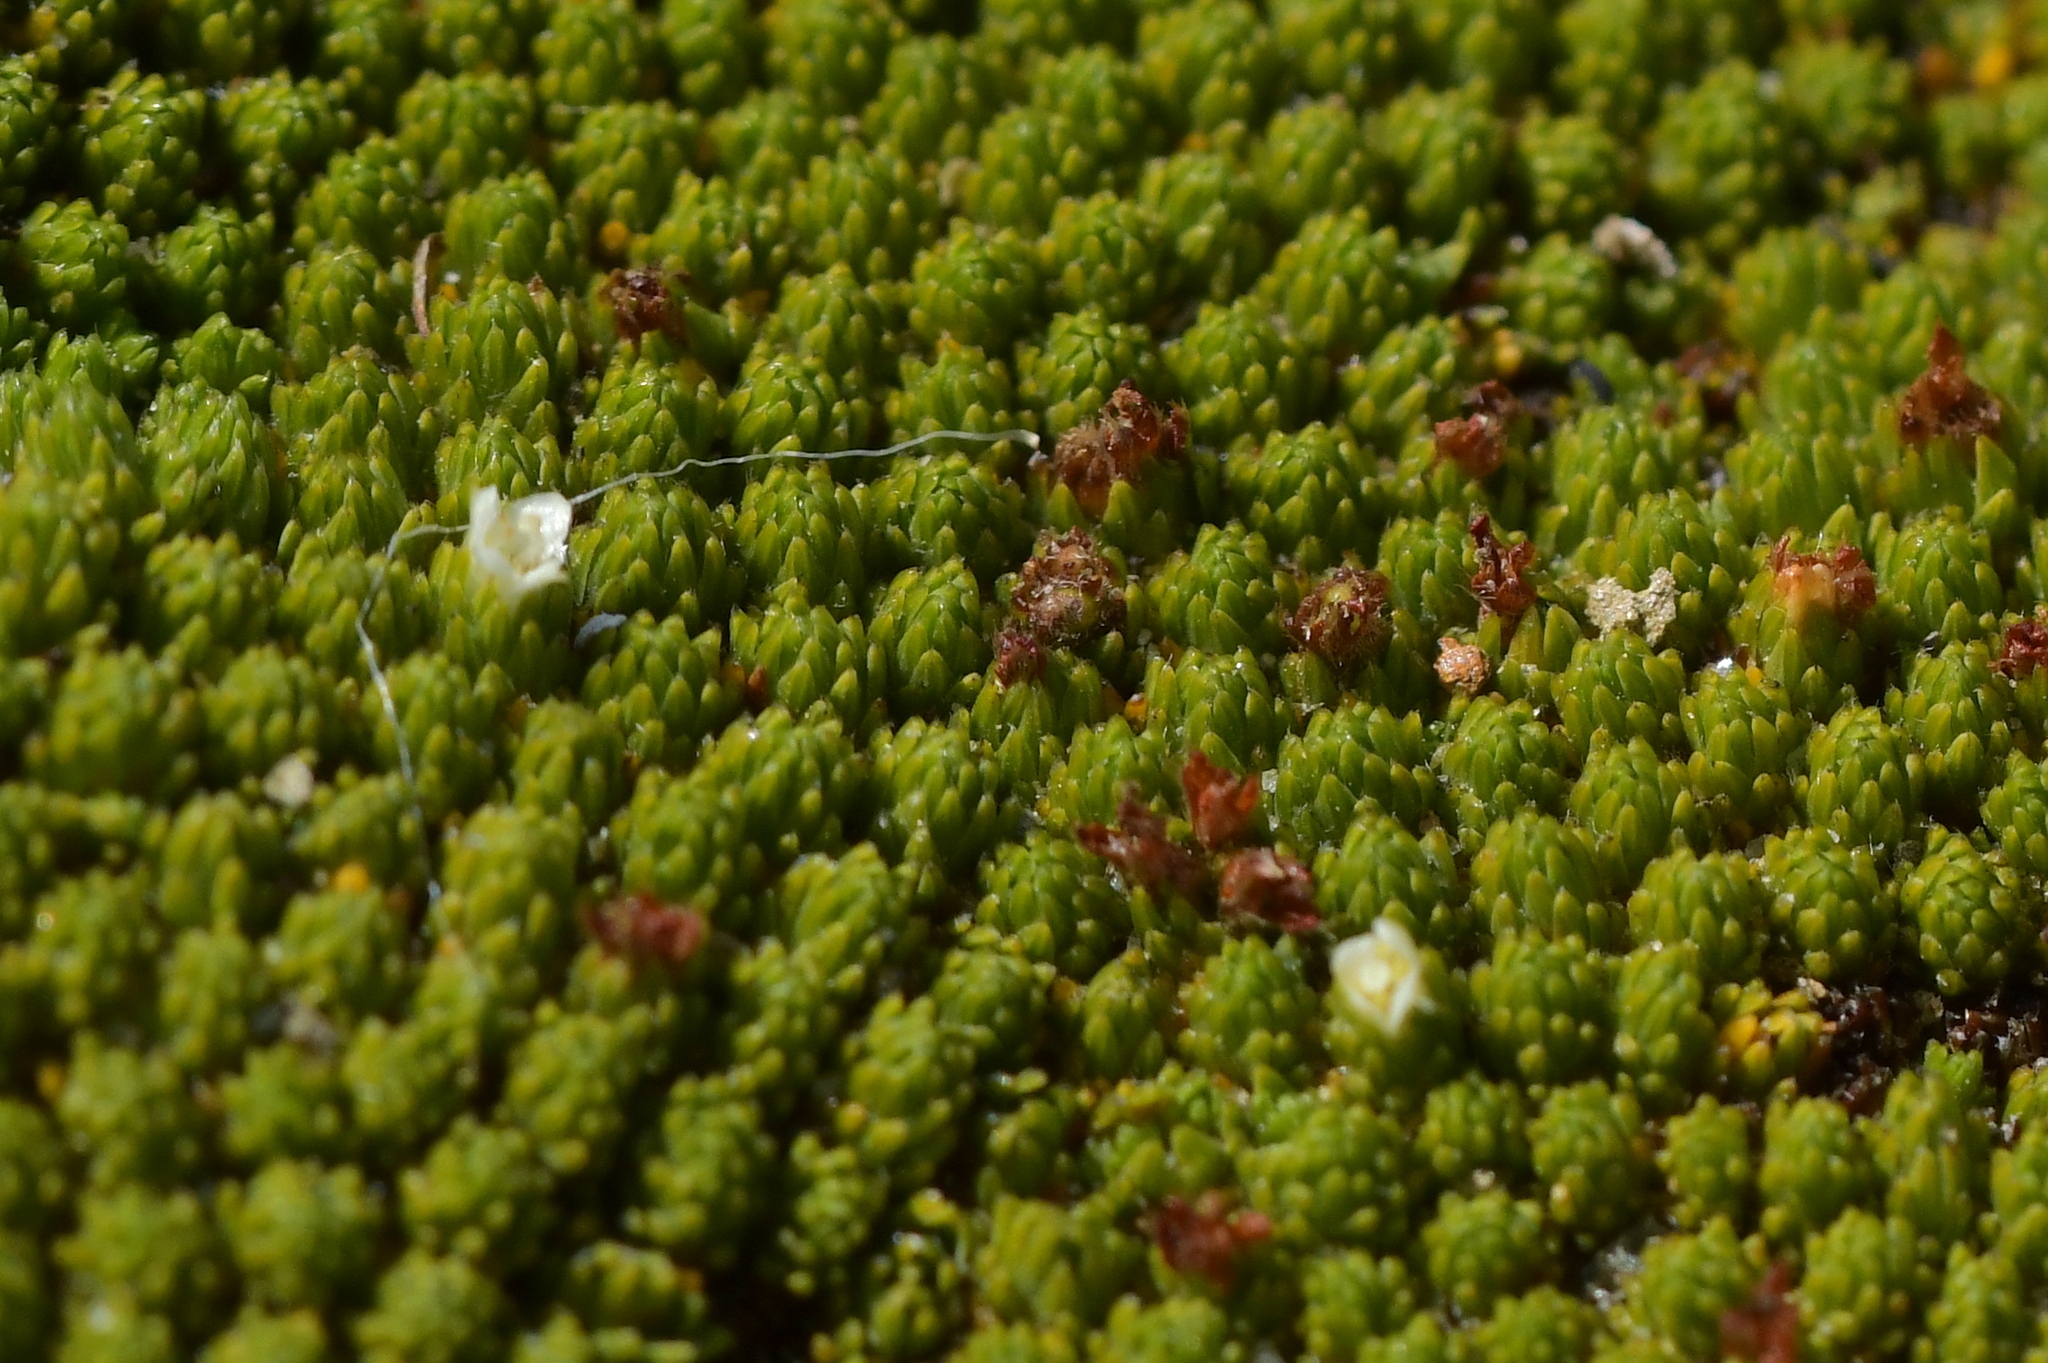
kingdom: Plantae
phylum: Tracheophyta
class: Magnoliopsida
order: Malvales
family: Thymelaeaceae
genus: Kelleria
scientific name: Kelleria childii
